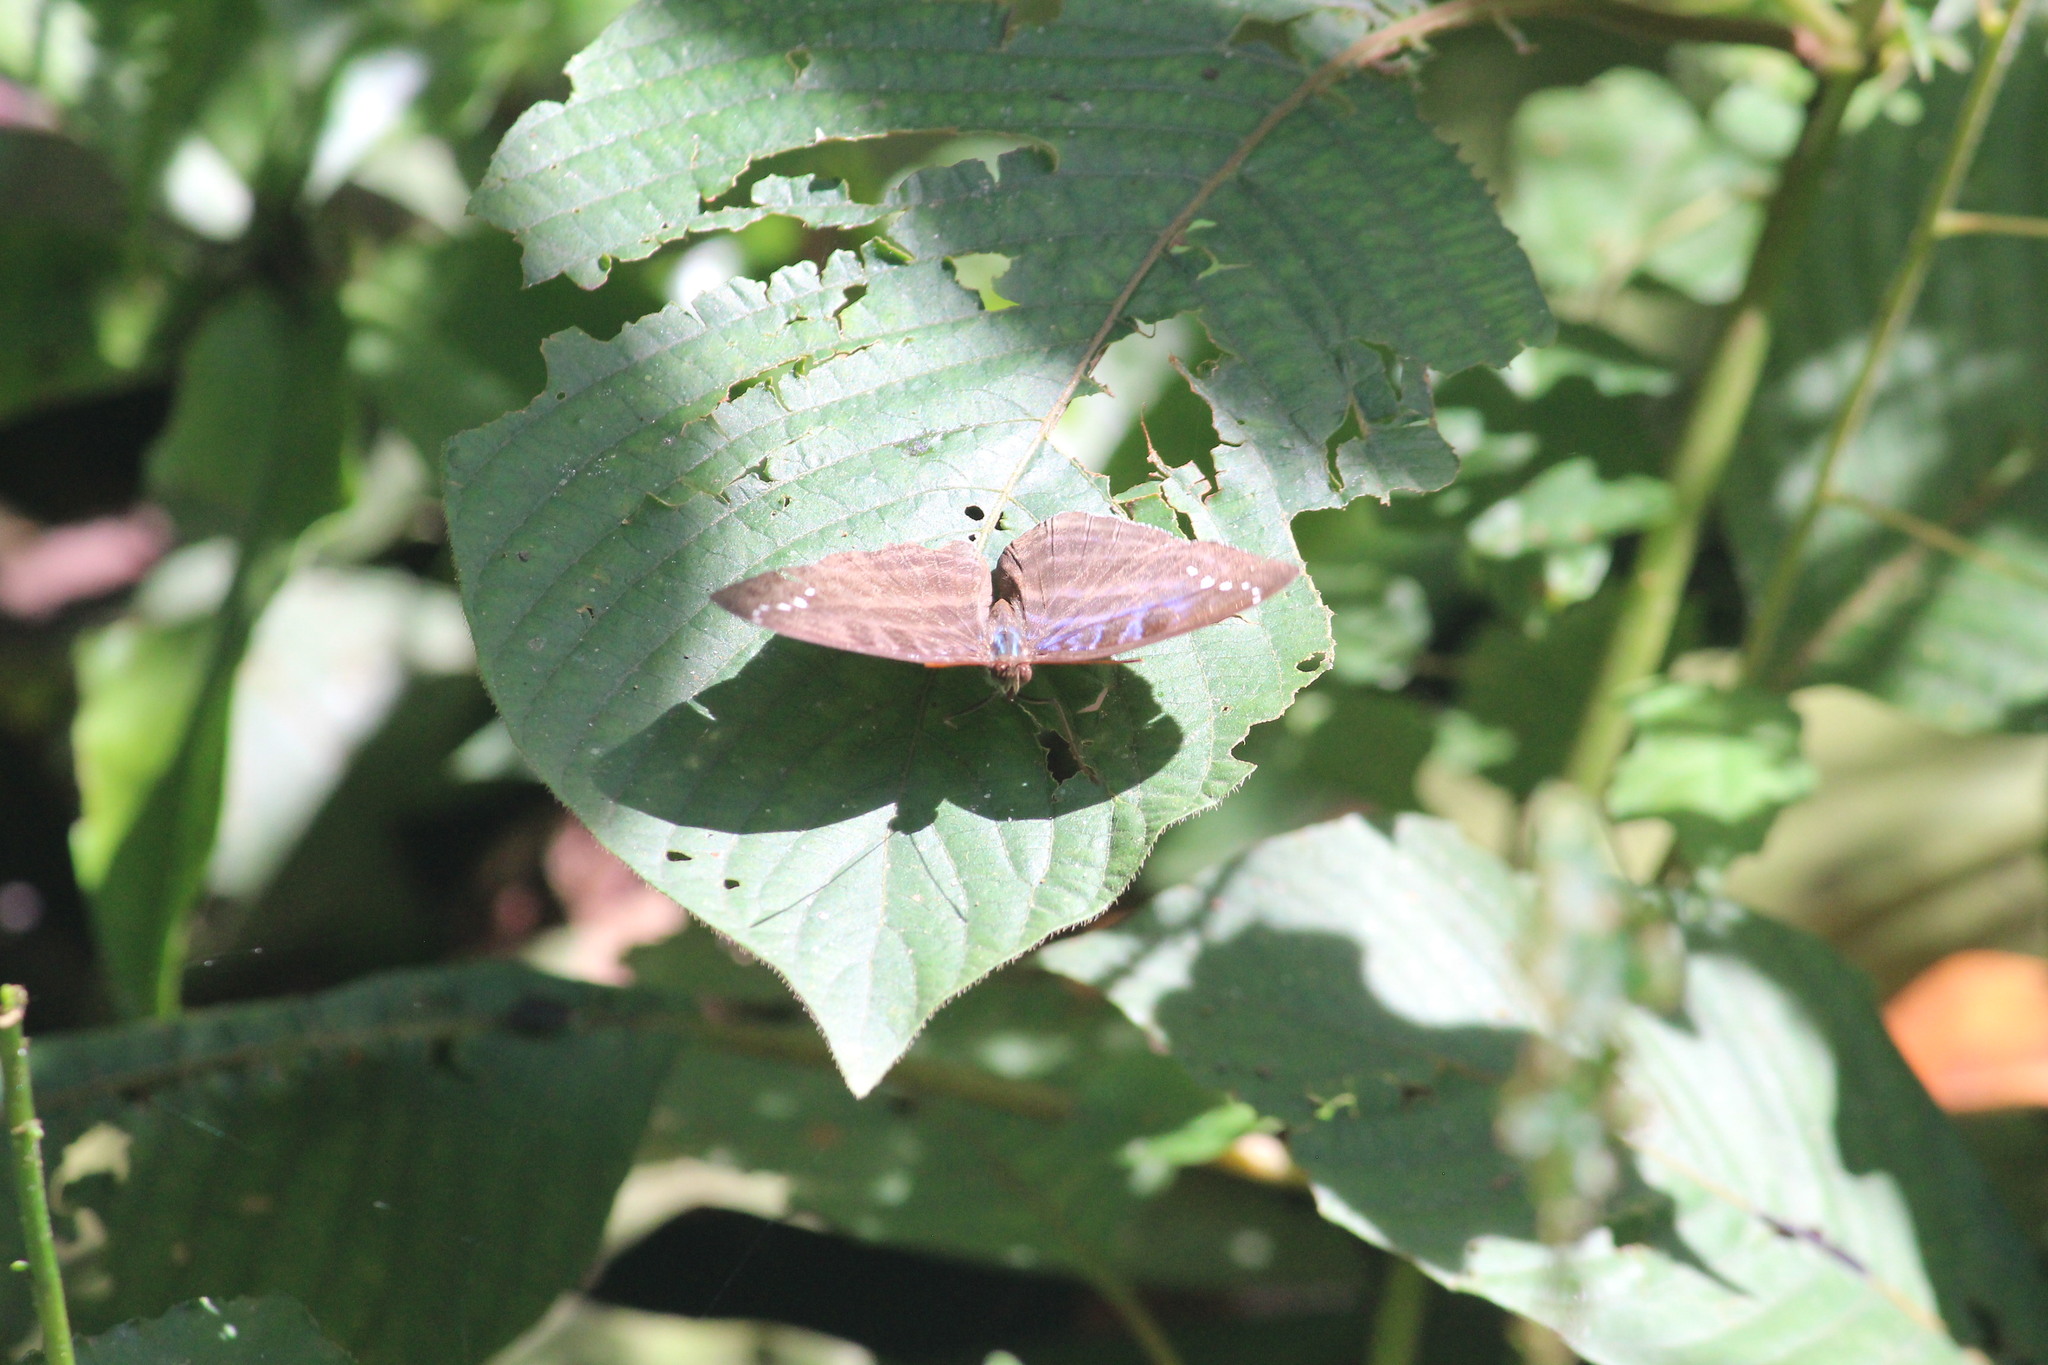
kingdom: Animalia
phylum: Arthropoda
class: Insecta
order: Lepidoptera
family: Nymphalidae
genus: Cynandra
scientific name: Cynandra opis
